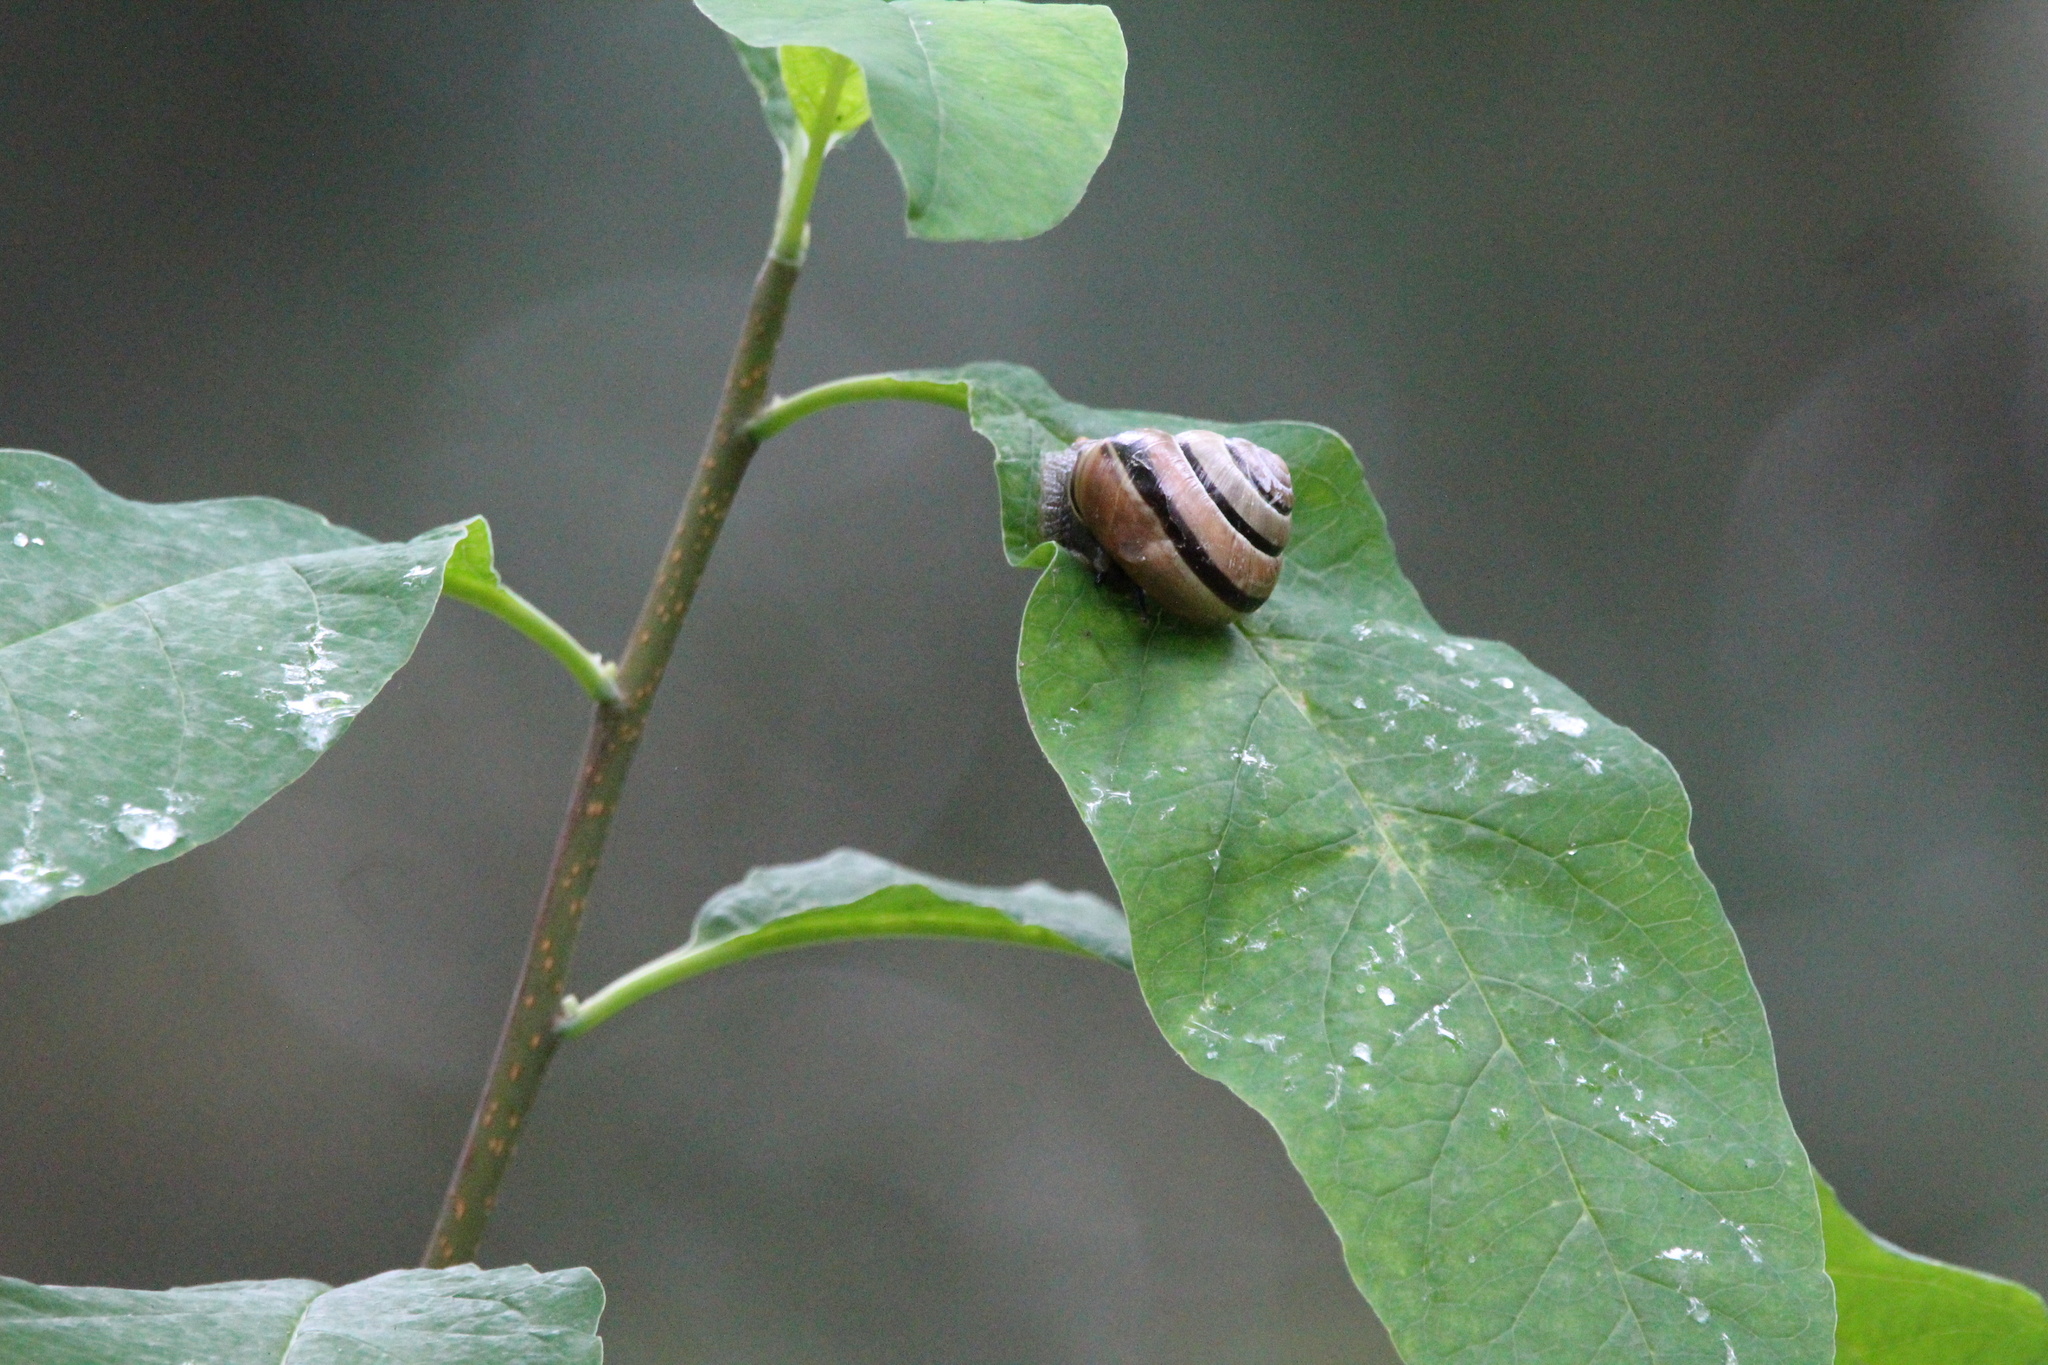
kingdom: Animalia
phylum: Mollusca
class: Gastropoda
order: Stylommatophora
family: Helicidae
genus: Cepaea
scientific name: Cepaea nemoralis
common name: Grovesnail
